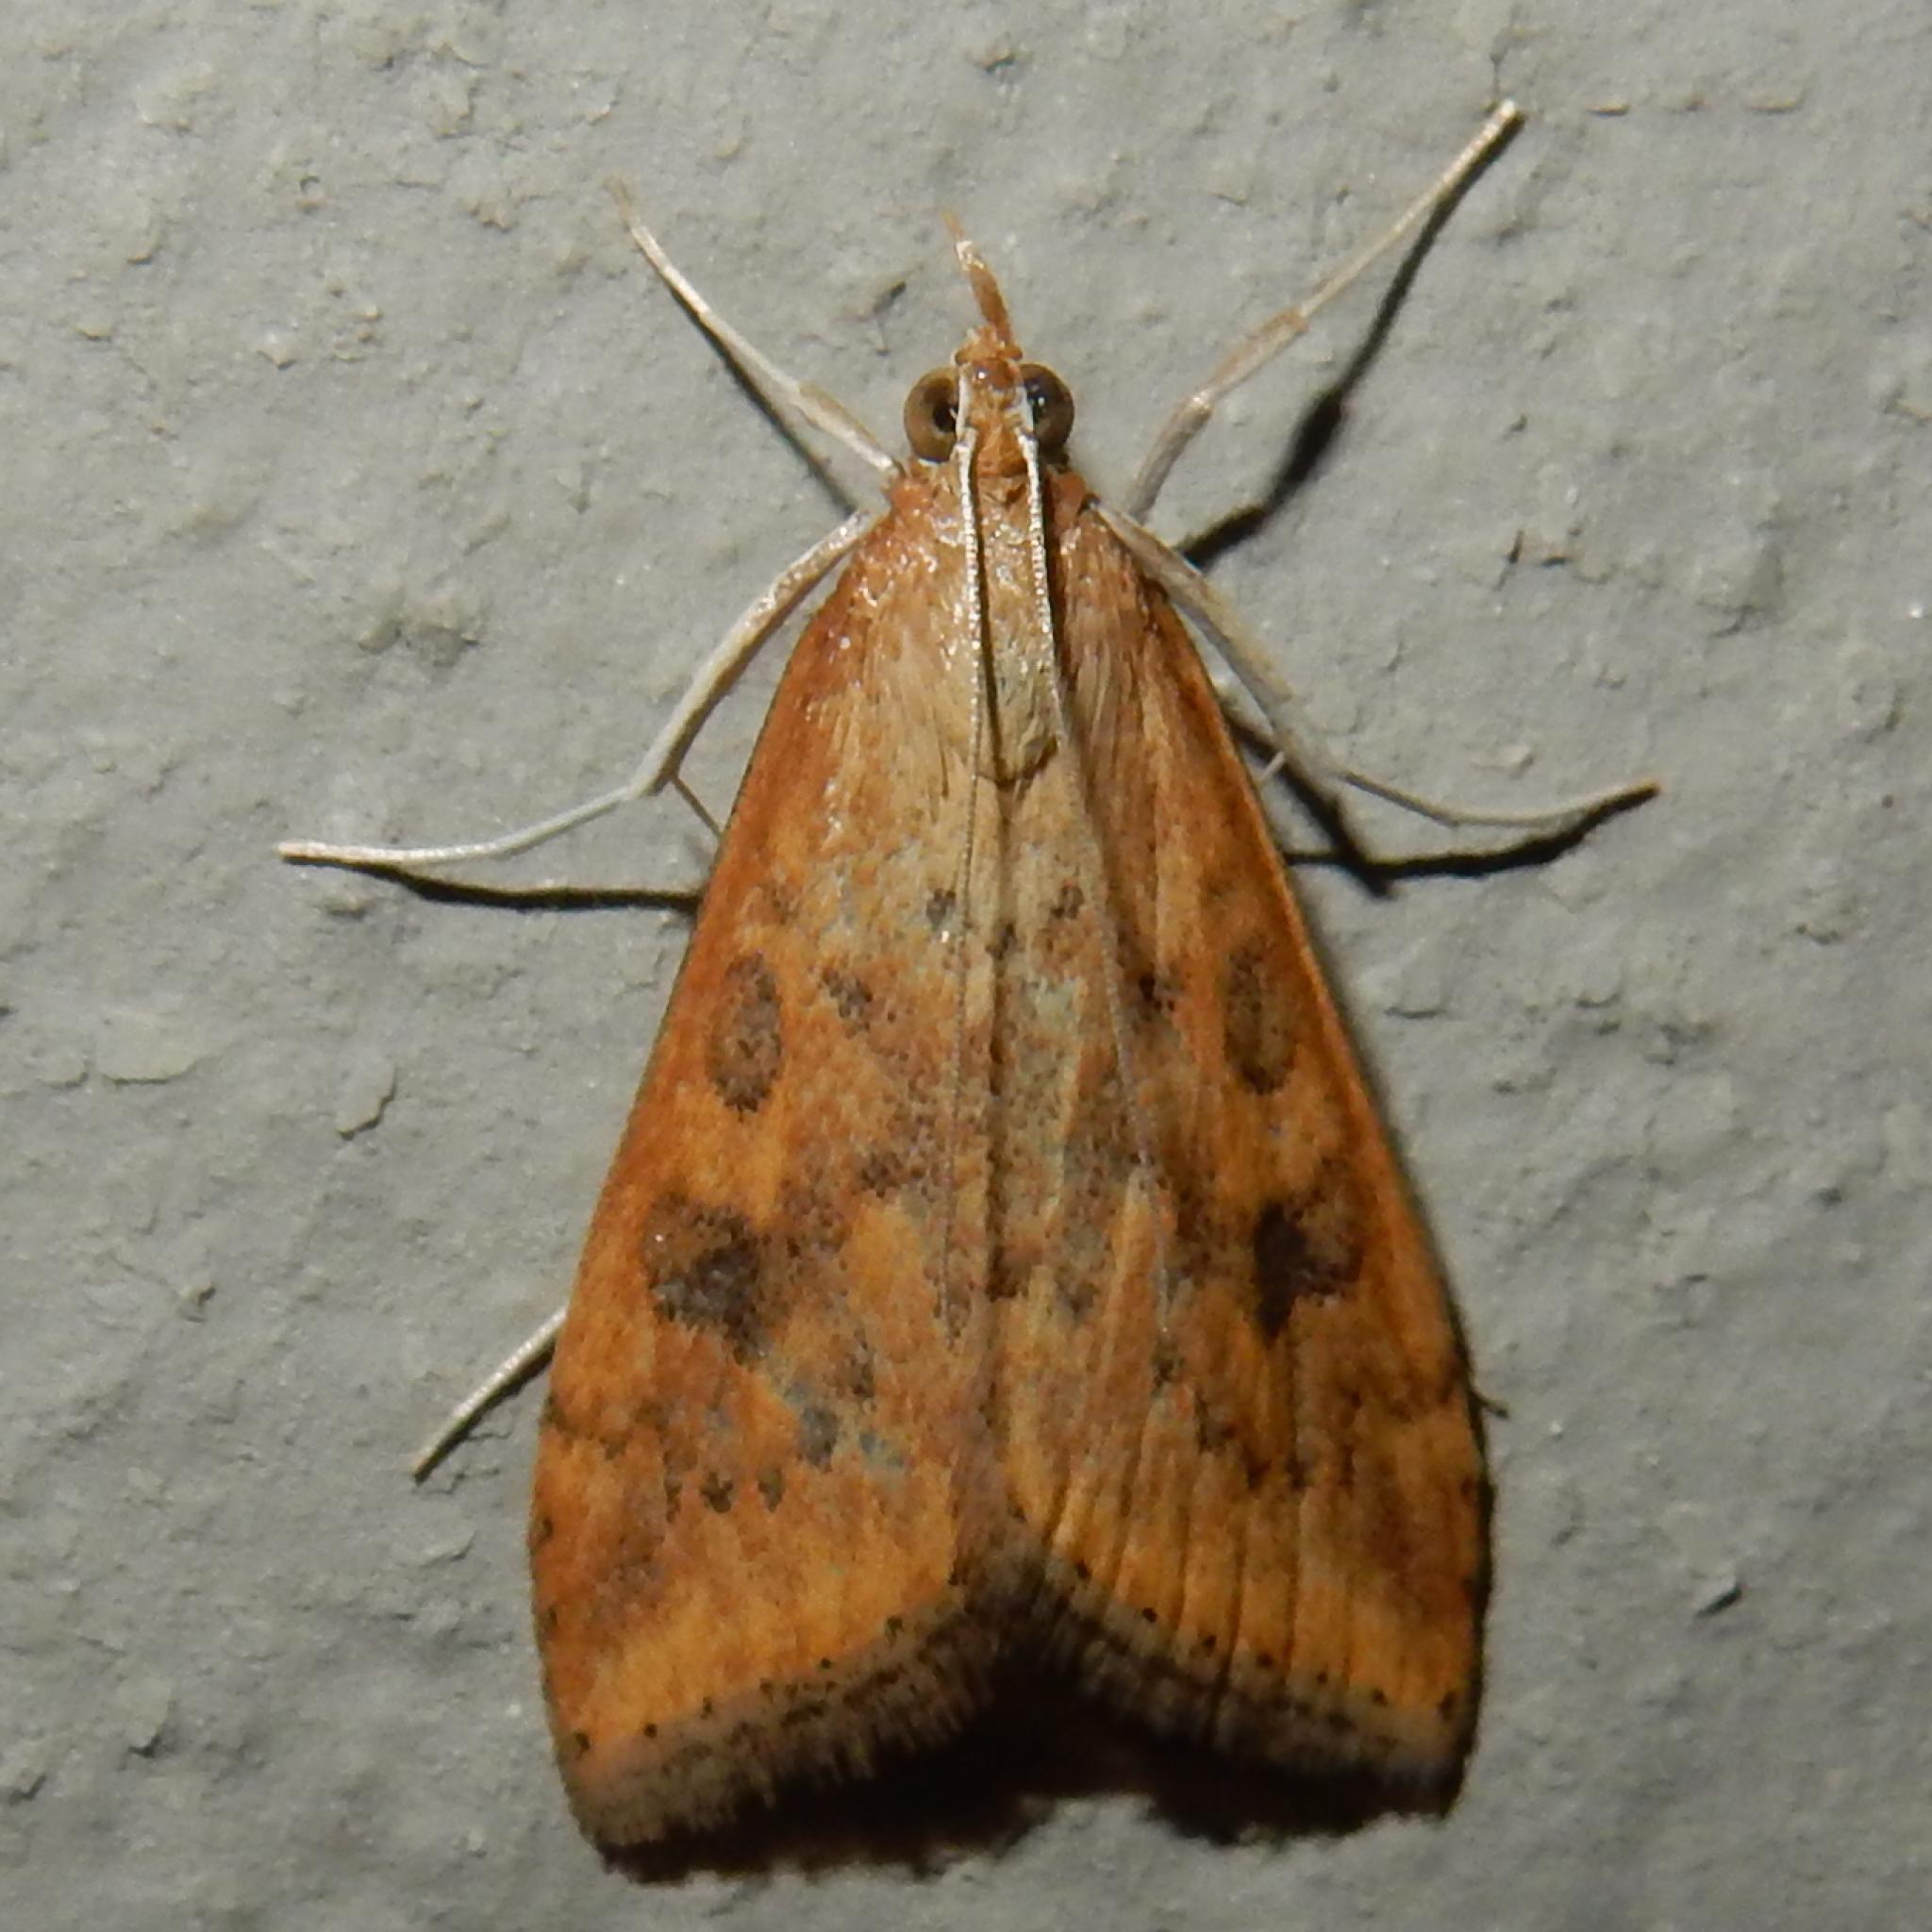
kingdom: Animalia
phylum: Arthropoda
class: Insecta
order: Lepidoptera
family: Crambidae
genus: Udea
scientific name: Udea ferrugalis
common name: Rusty dot
